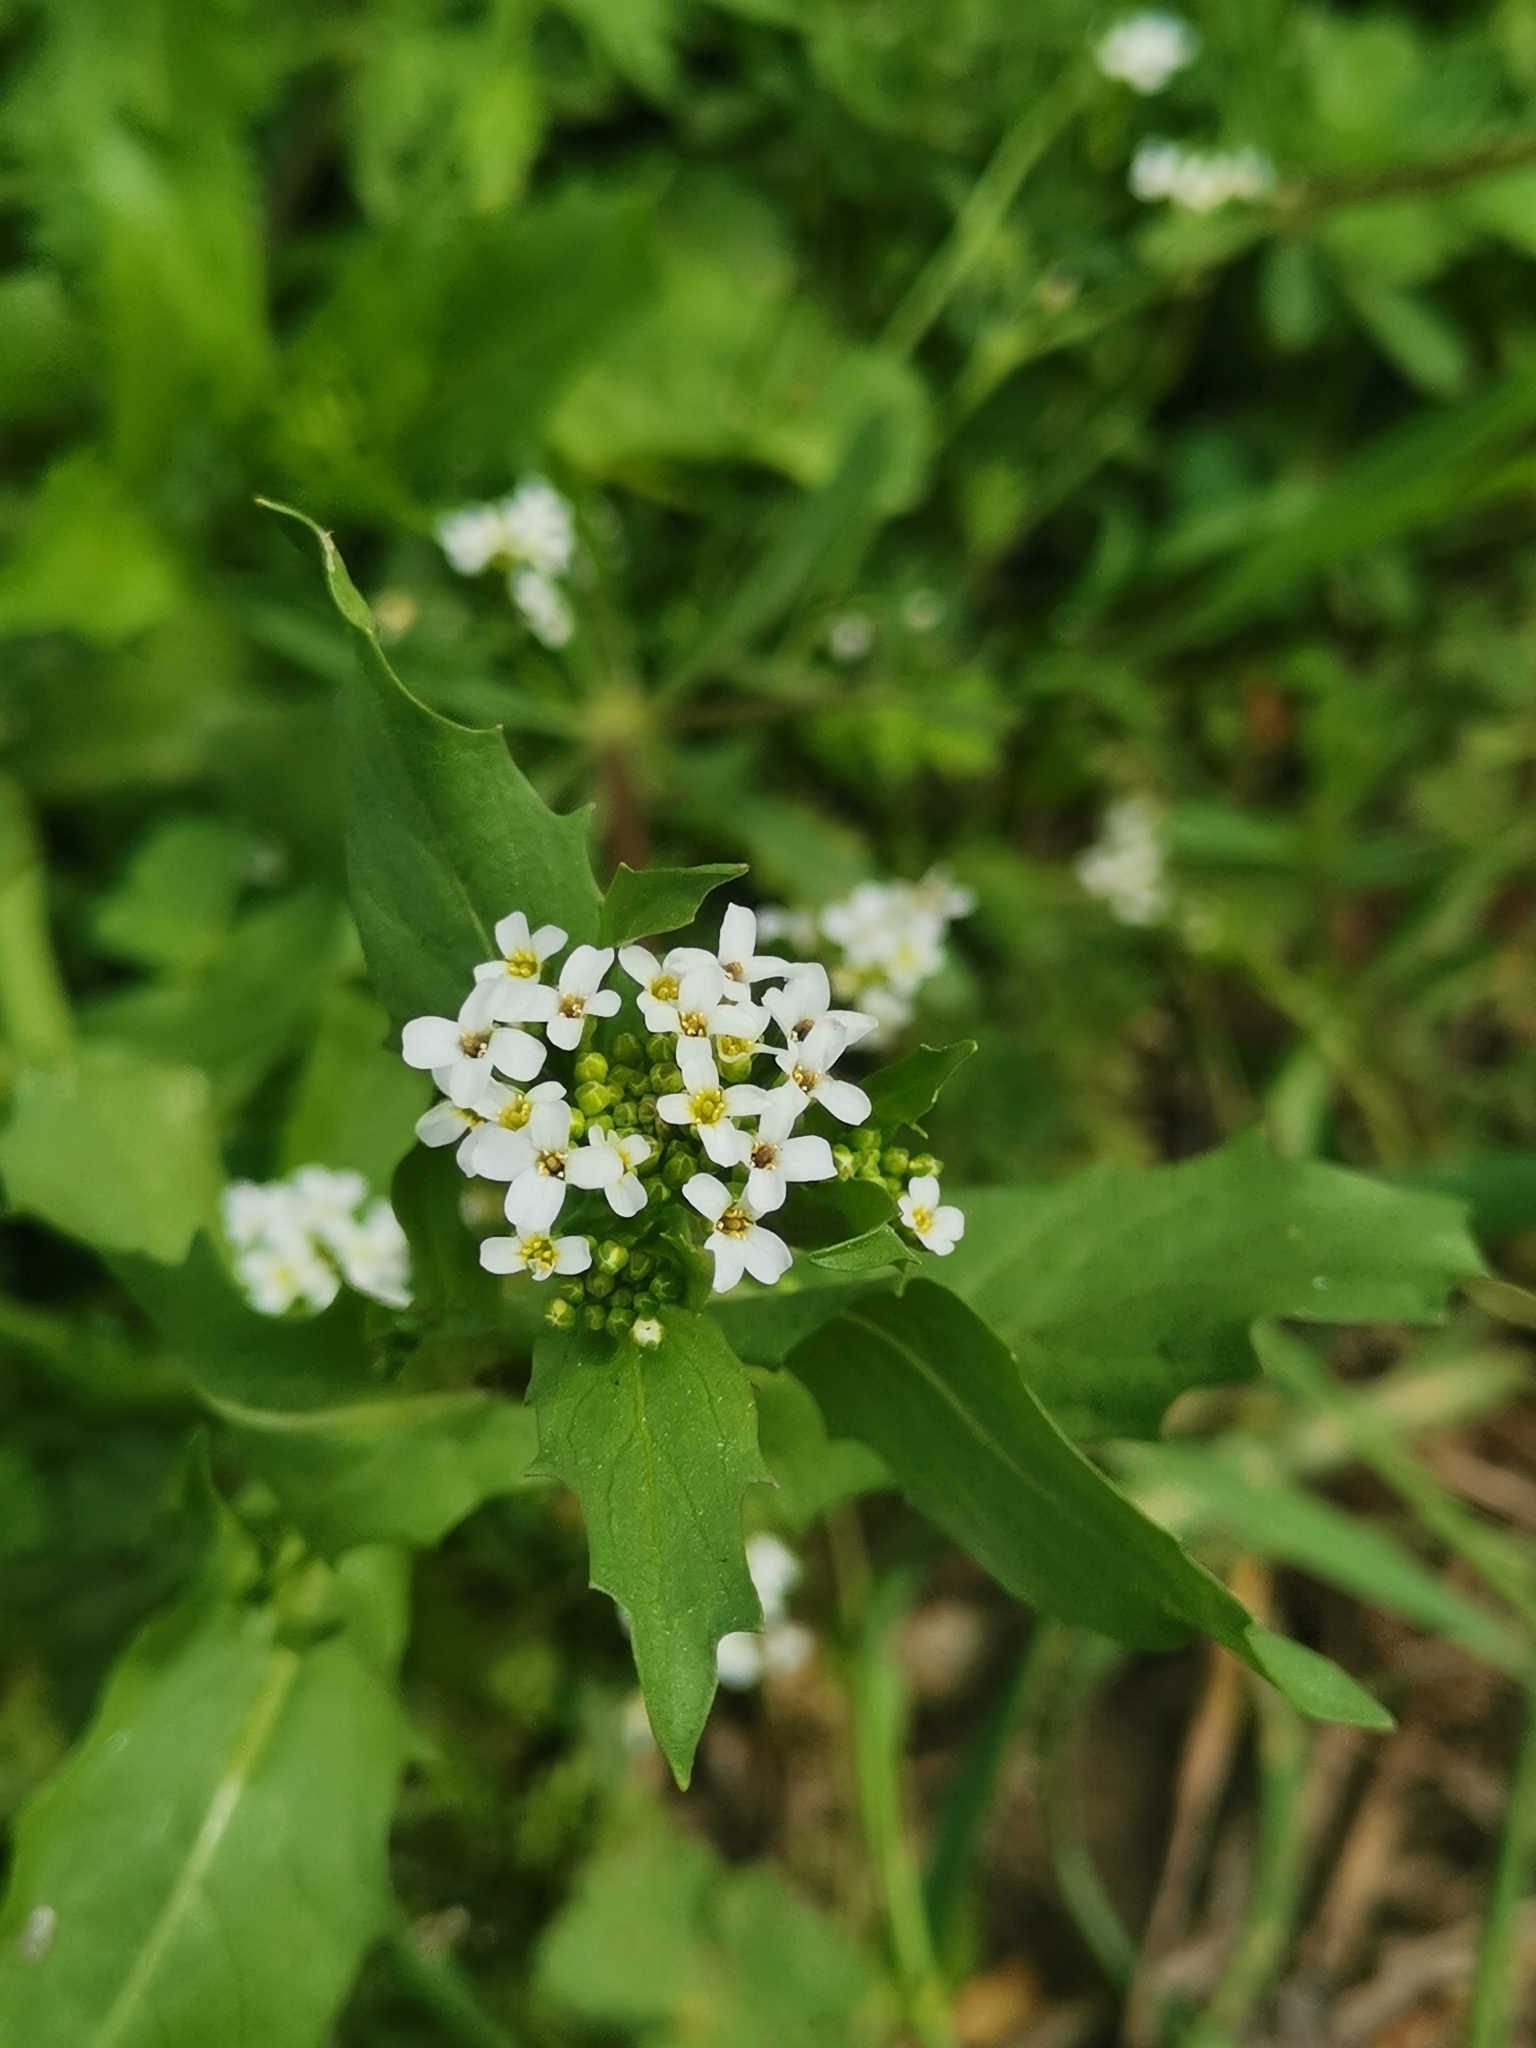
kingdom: Plantae
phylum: Tracheophyta
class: Magnoliopsida
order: Brassicales
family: Brassicaceae
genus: Calepina
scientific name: Calepina irregularis
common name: White ballmustard
